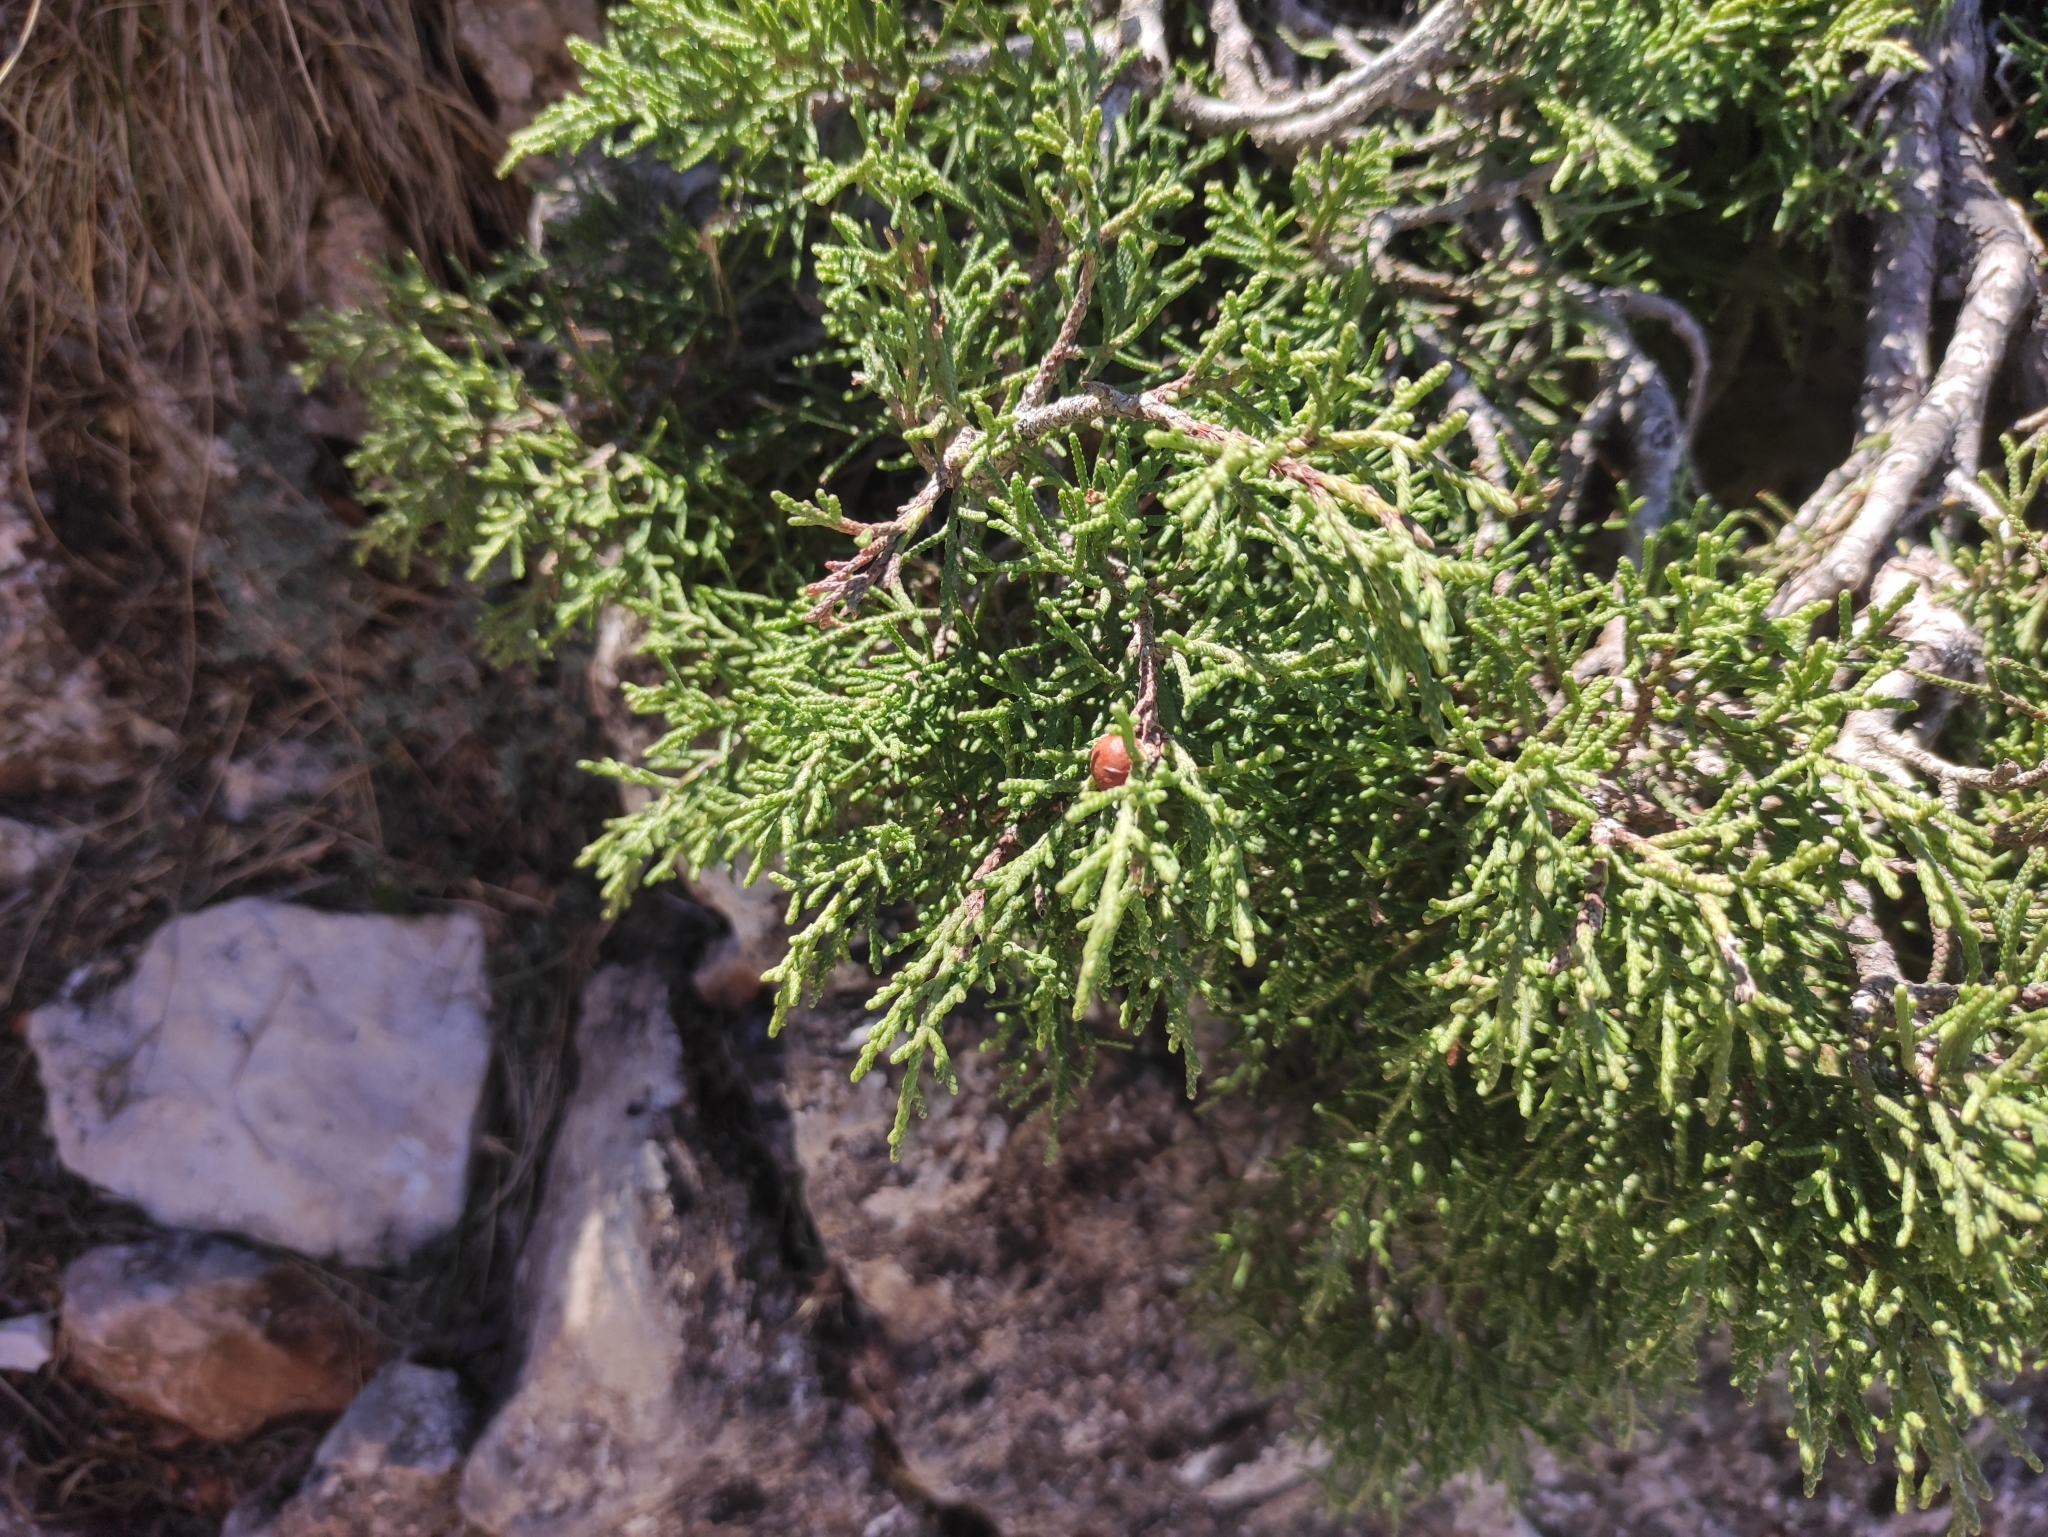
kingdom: Plantae
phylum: Tracheophyta
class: Pinopsida
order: Pinales
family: Cupressaceae
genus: Juniperus
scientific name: Juniperus phoenicea
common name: Phoenician juniper
